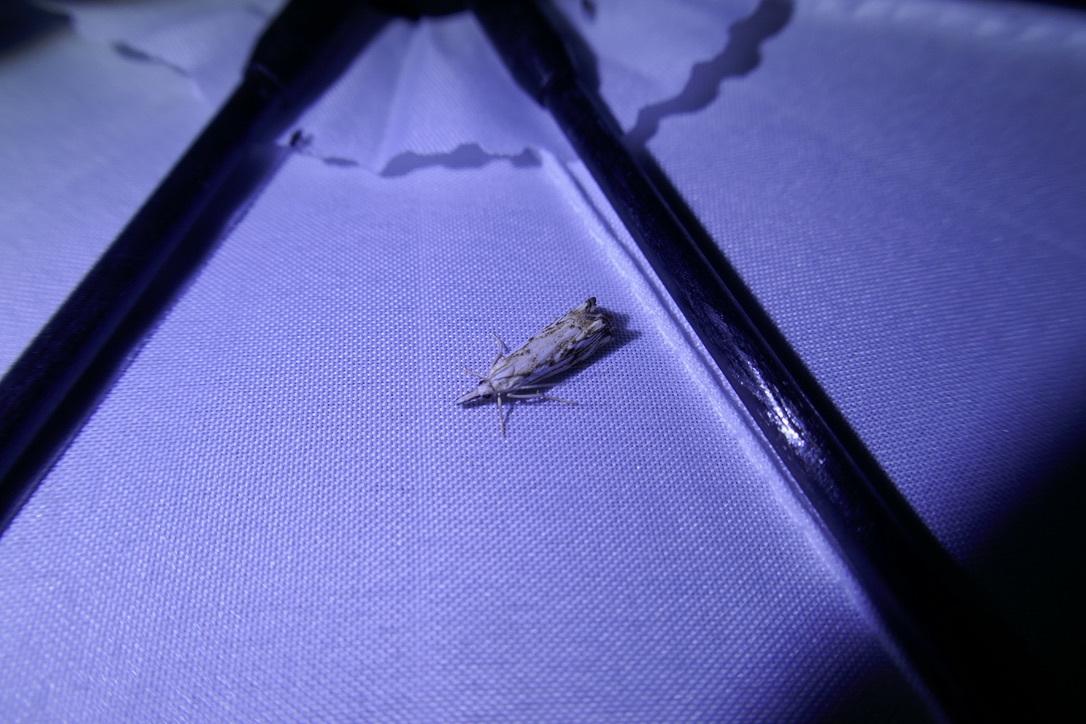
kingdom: Animalia
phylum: Arthropoda
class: Insecta
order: Lepidoptera
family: Crambidae
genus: Catoptria
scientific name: Catoptria falsella
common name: Chequered grass-veneer
